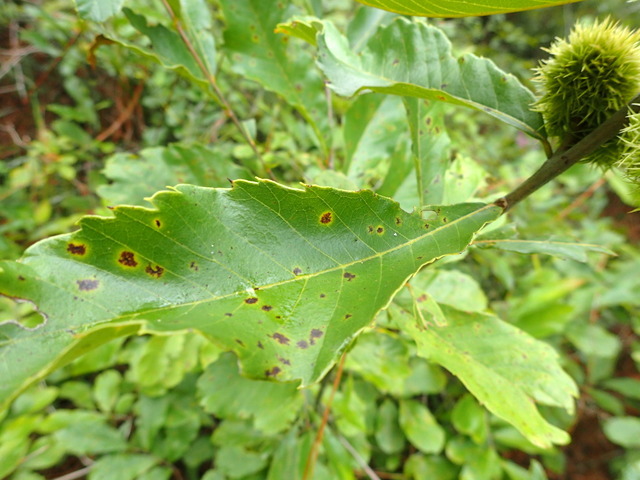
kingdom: Plantae
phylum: Tracheophyta
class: Magnoliopsida
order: Fagales
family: Fagaceae
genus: Castanea
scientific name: Castanea pumila
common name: Chinkapin
